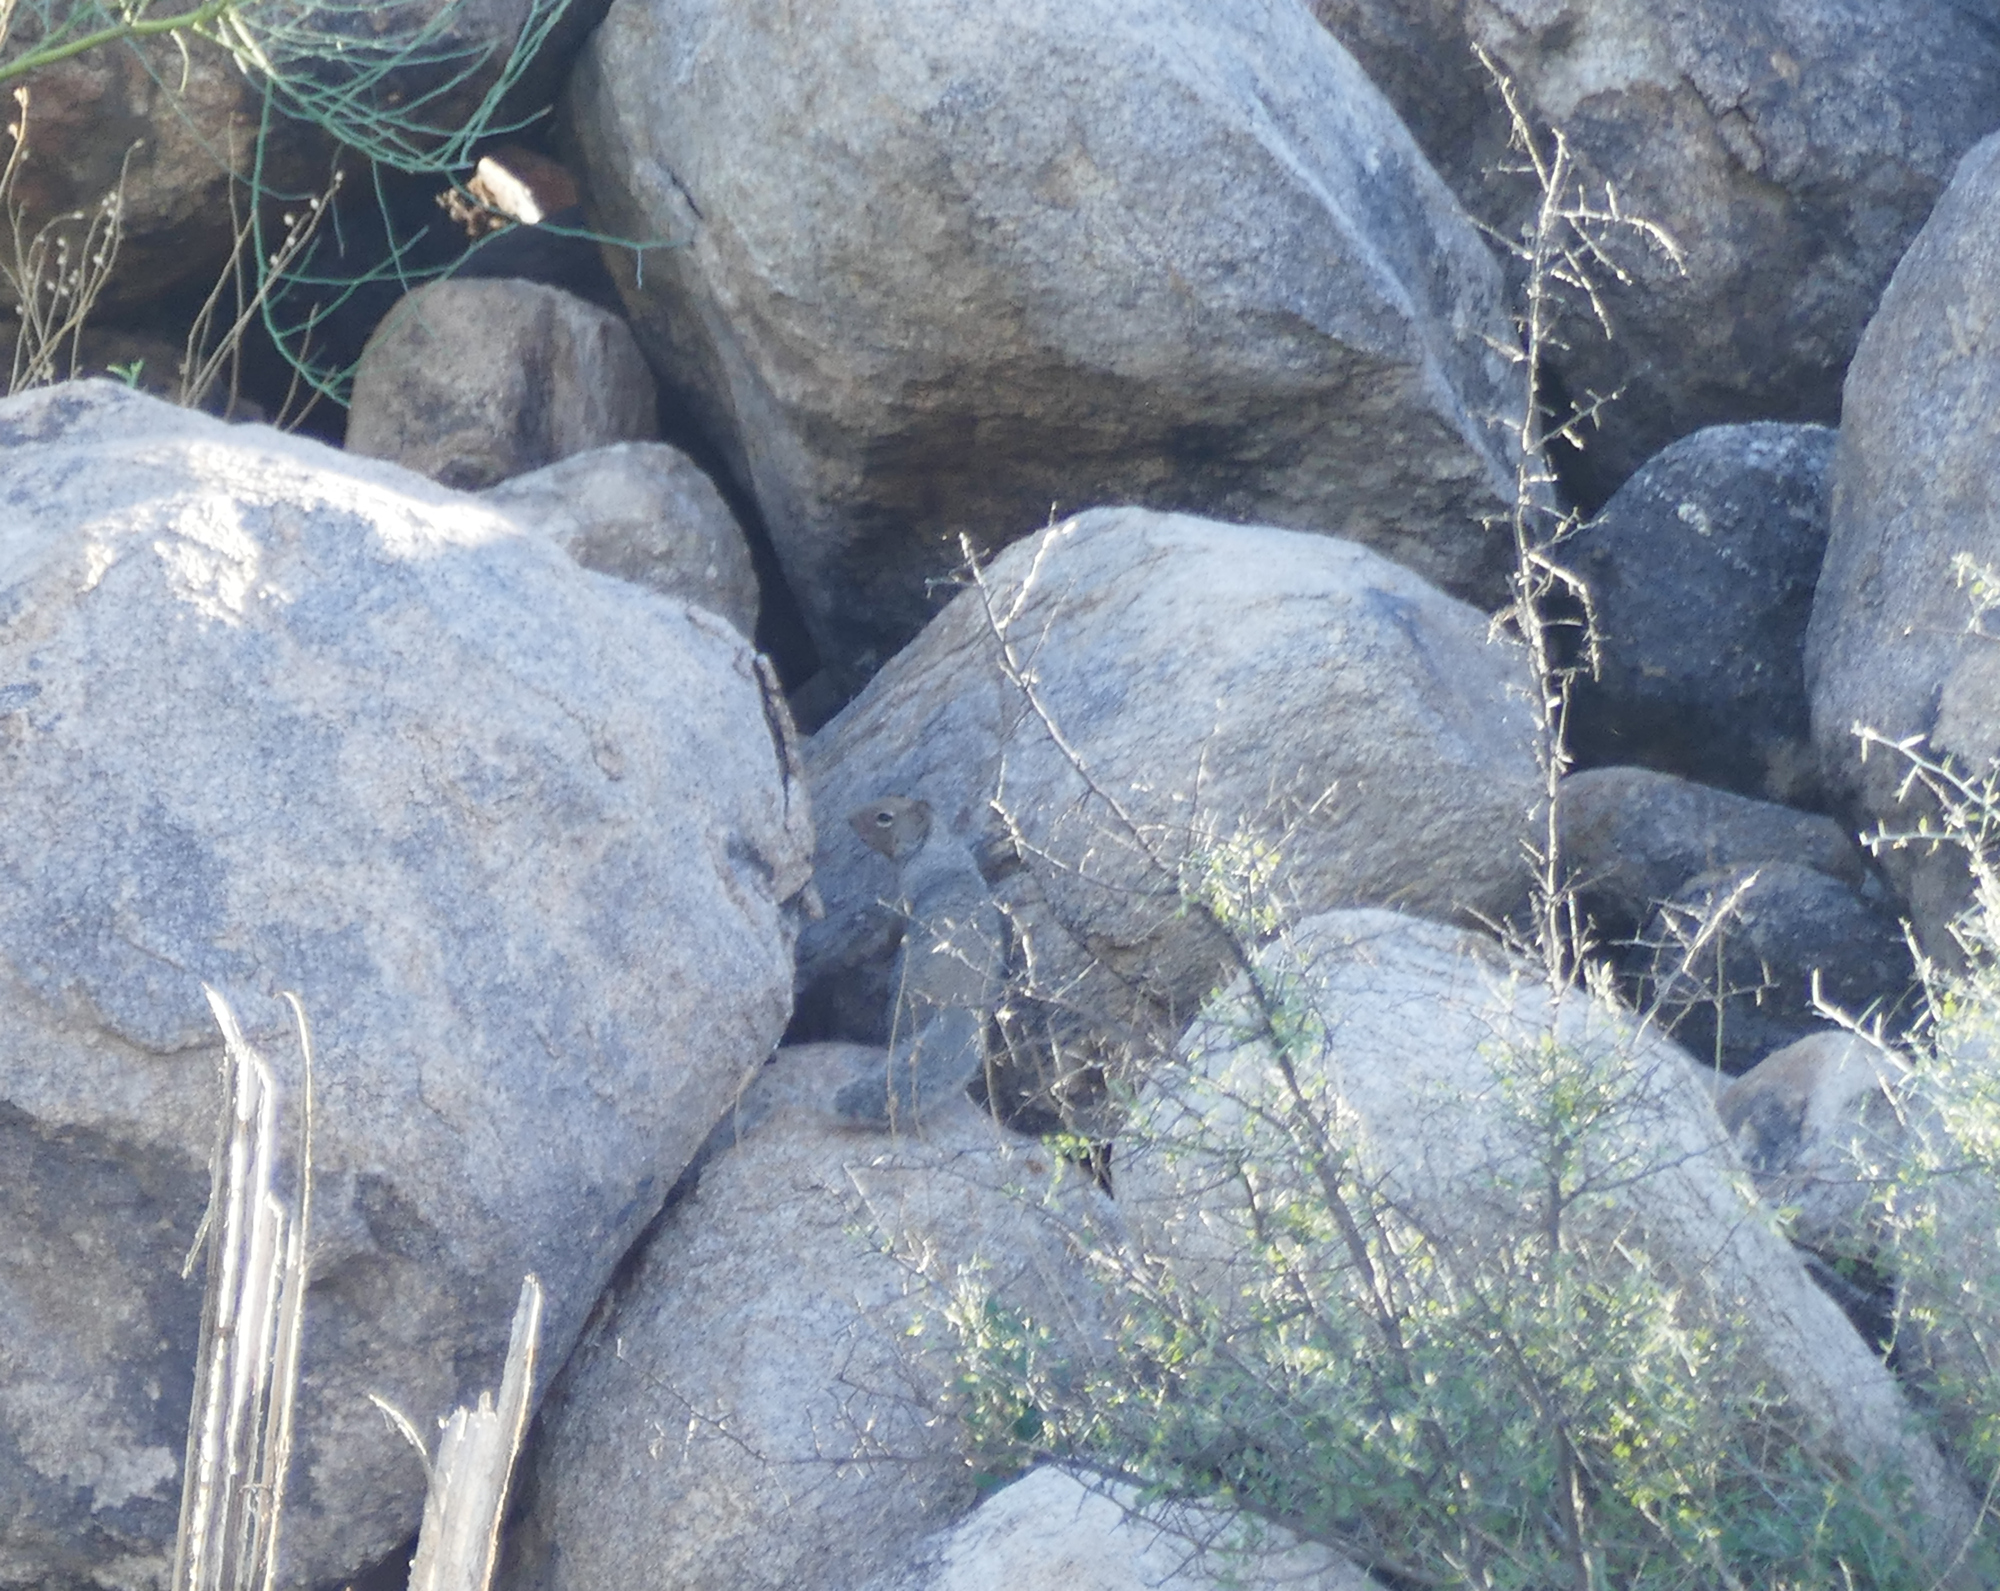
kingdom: Animalia
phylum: Chordata
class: Mammalia
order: Rodentia
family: Sciuridae
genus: Otospermophilus
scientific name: Otospermophilus variegatus
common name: Rock squirrel
